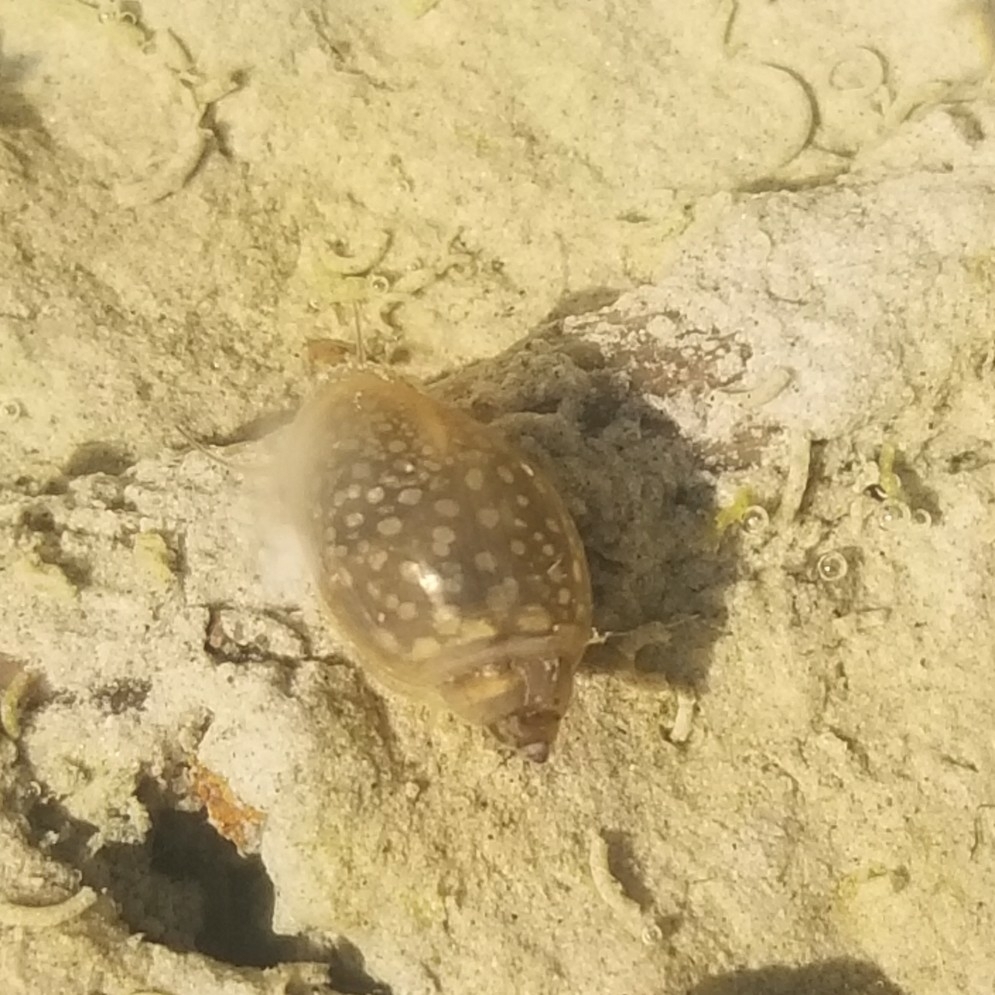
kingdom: Animalia
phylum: Mollusca
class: Gastropoda
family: Physidae
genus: Physella
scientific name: Physella acuta
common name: European physa
